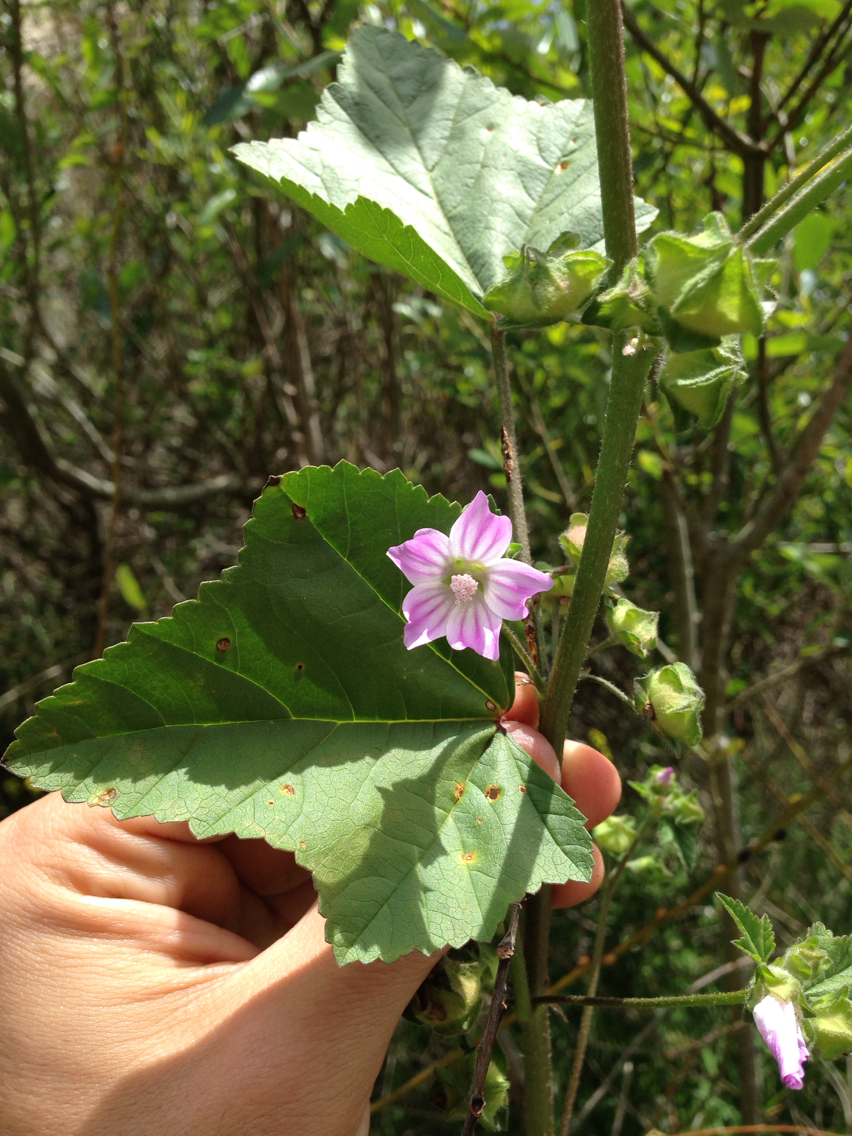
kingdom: Plantae
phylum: Tracheophyta
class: Magnoliopsida
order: Malvales
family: Malvaceae
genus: Malva
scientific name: Malva multiflora
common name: Cheeseweed
